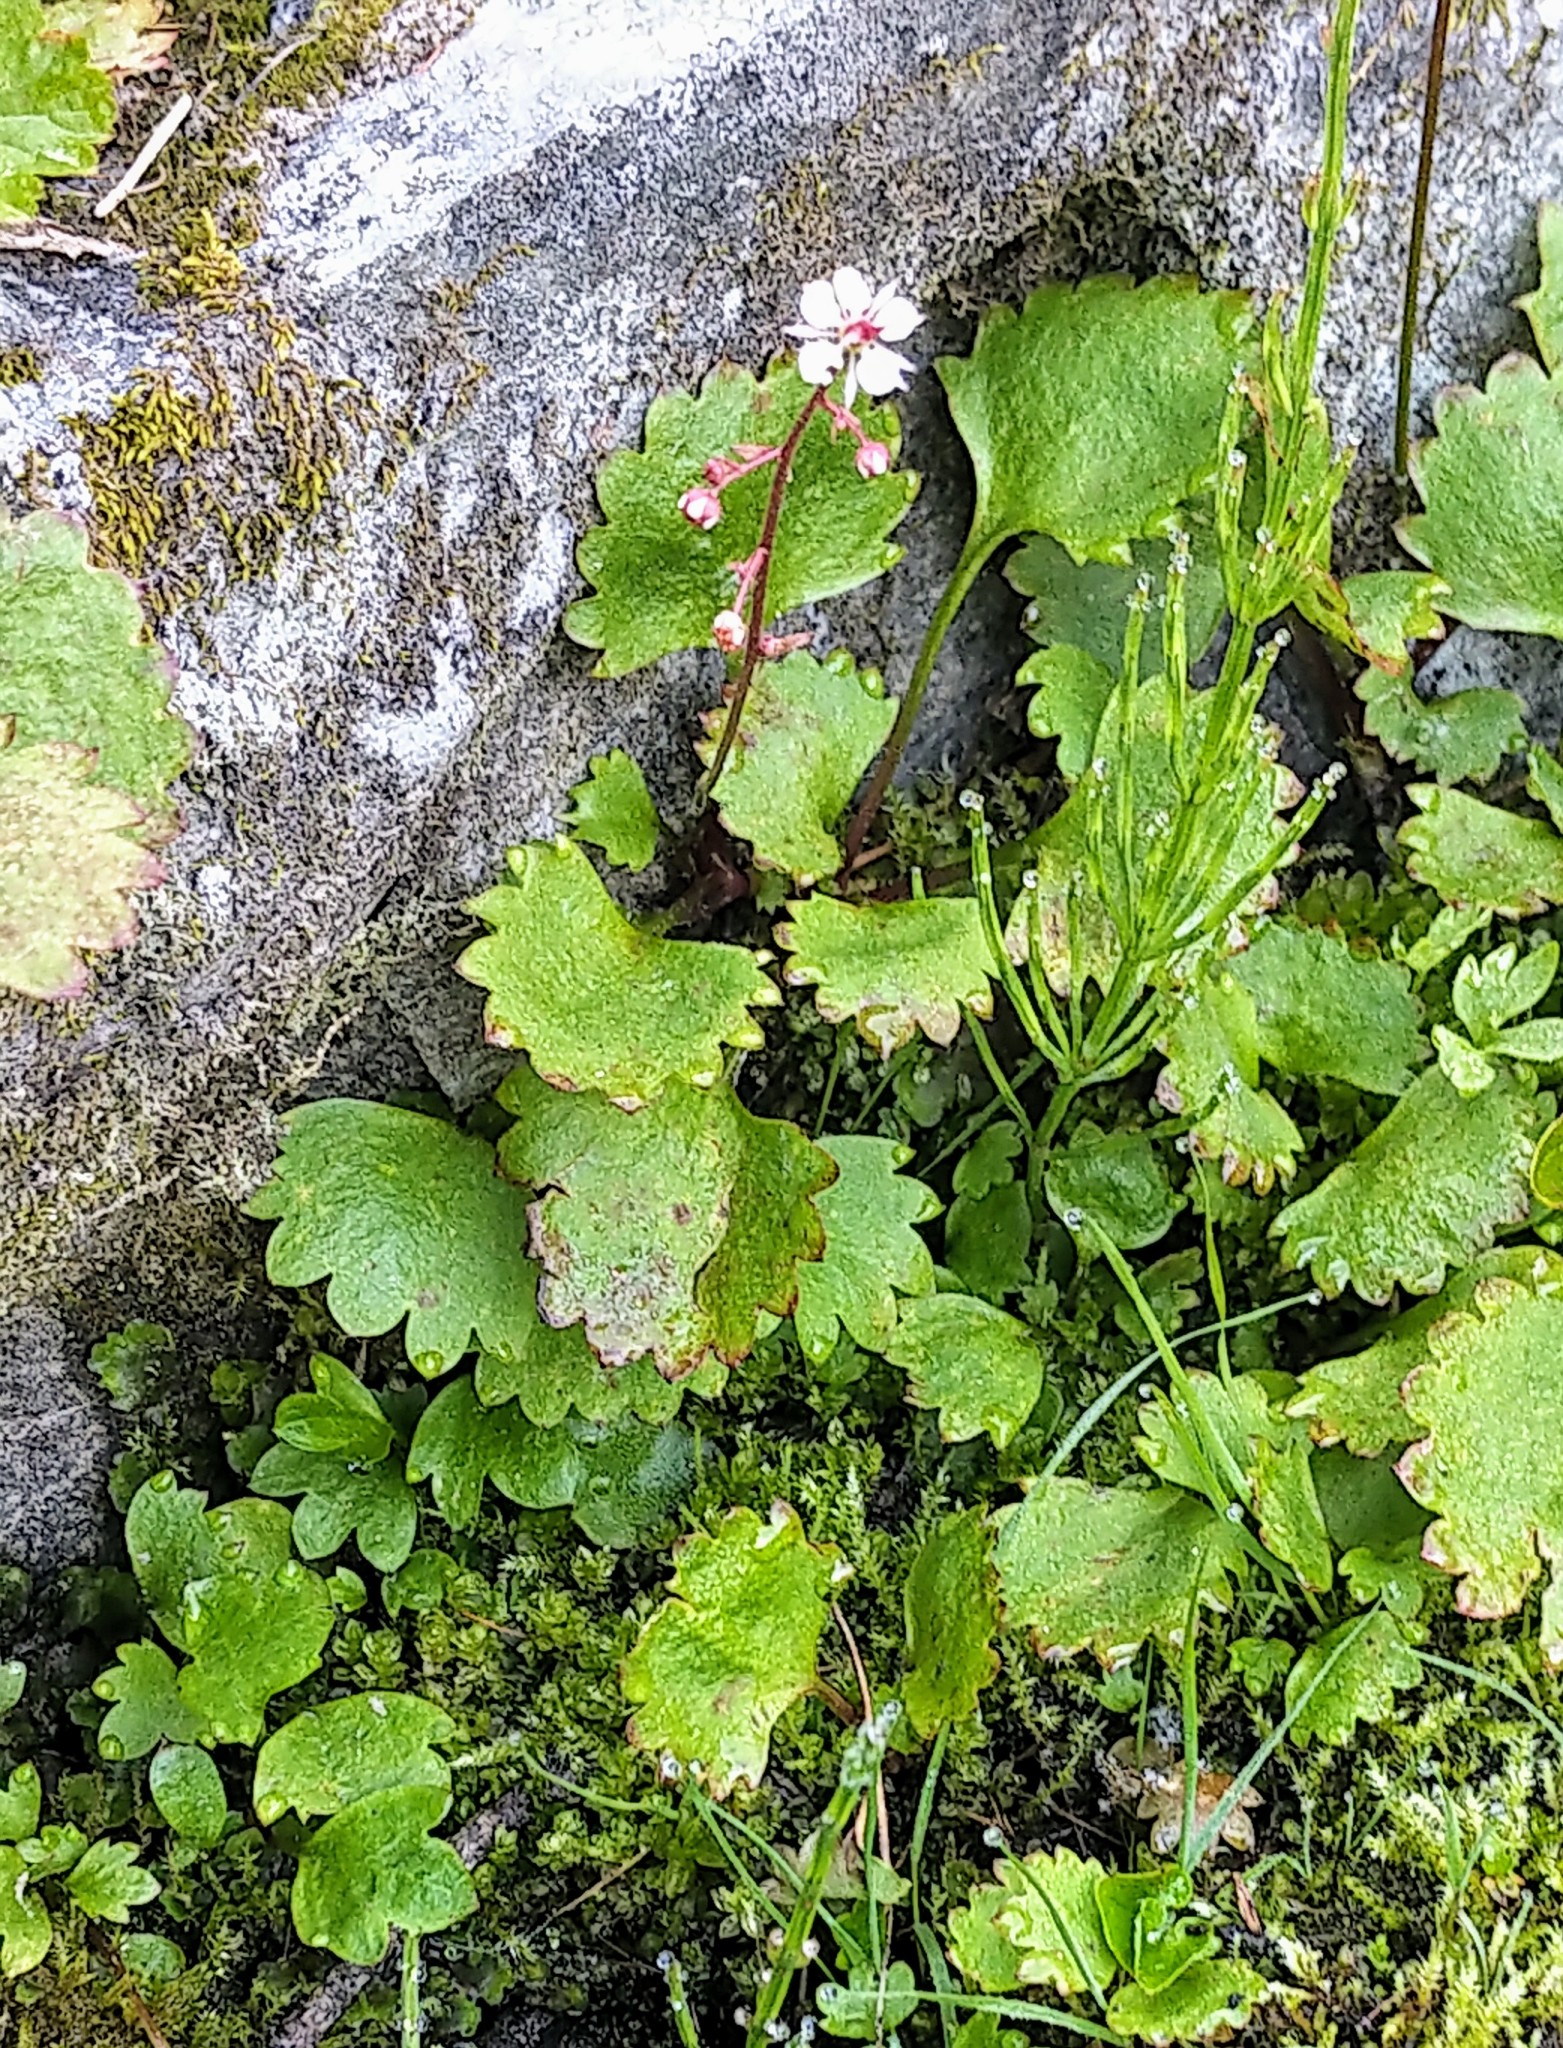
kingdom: Plantae
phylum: Tracheophyta
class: Magnoliopsida
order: Saxifragales
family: Saxifragaceae
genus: Micranthes
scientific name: Micranthes lyallii
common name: Lyall's saxifrage
